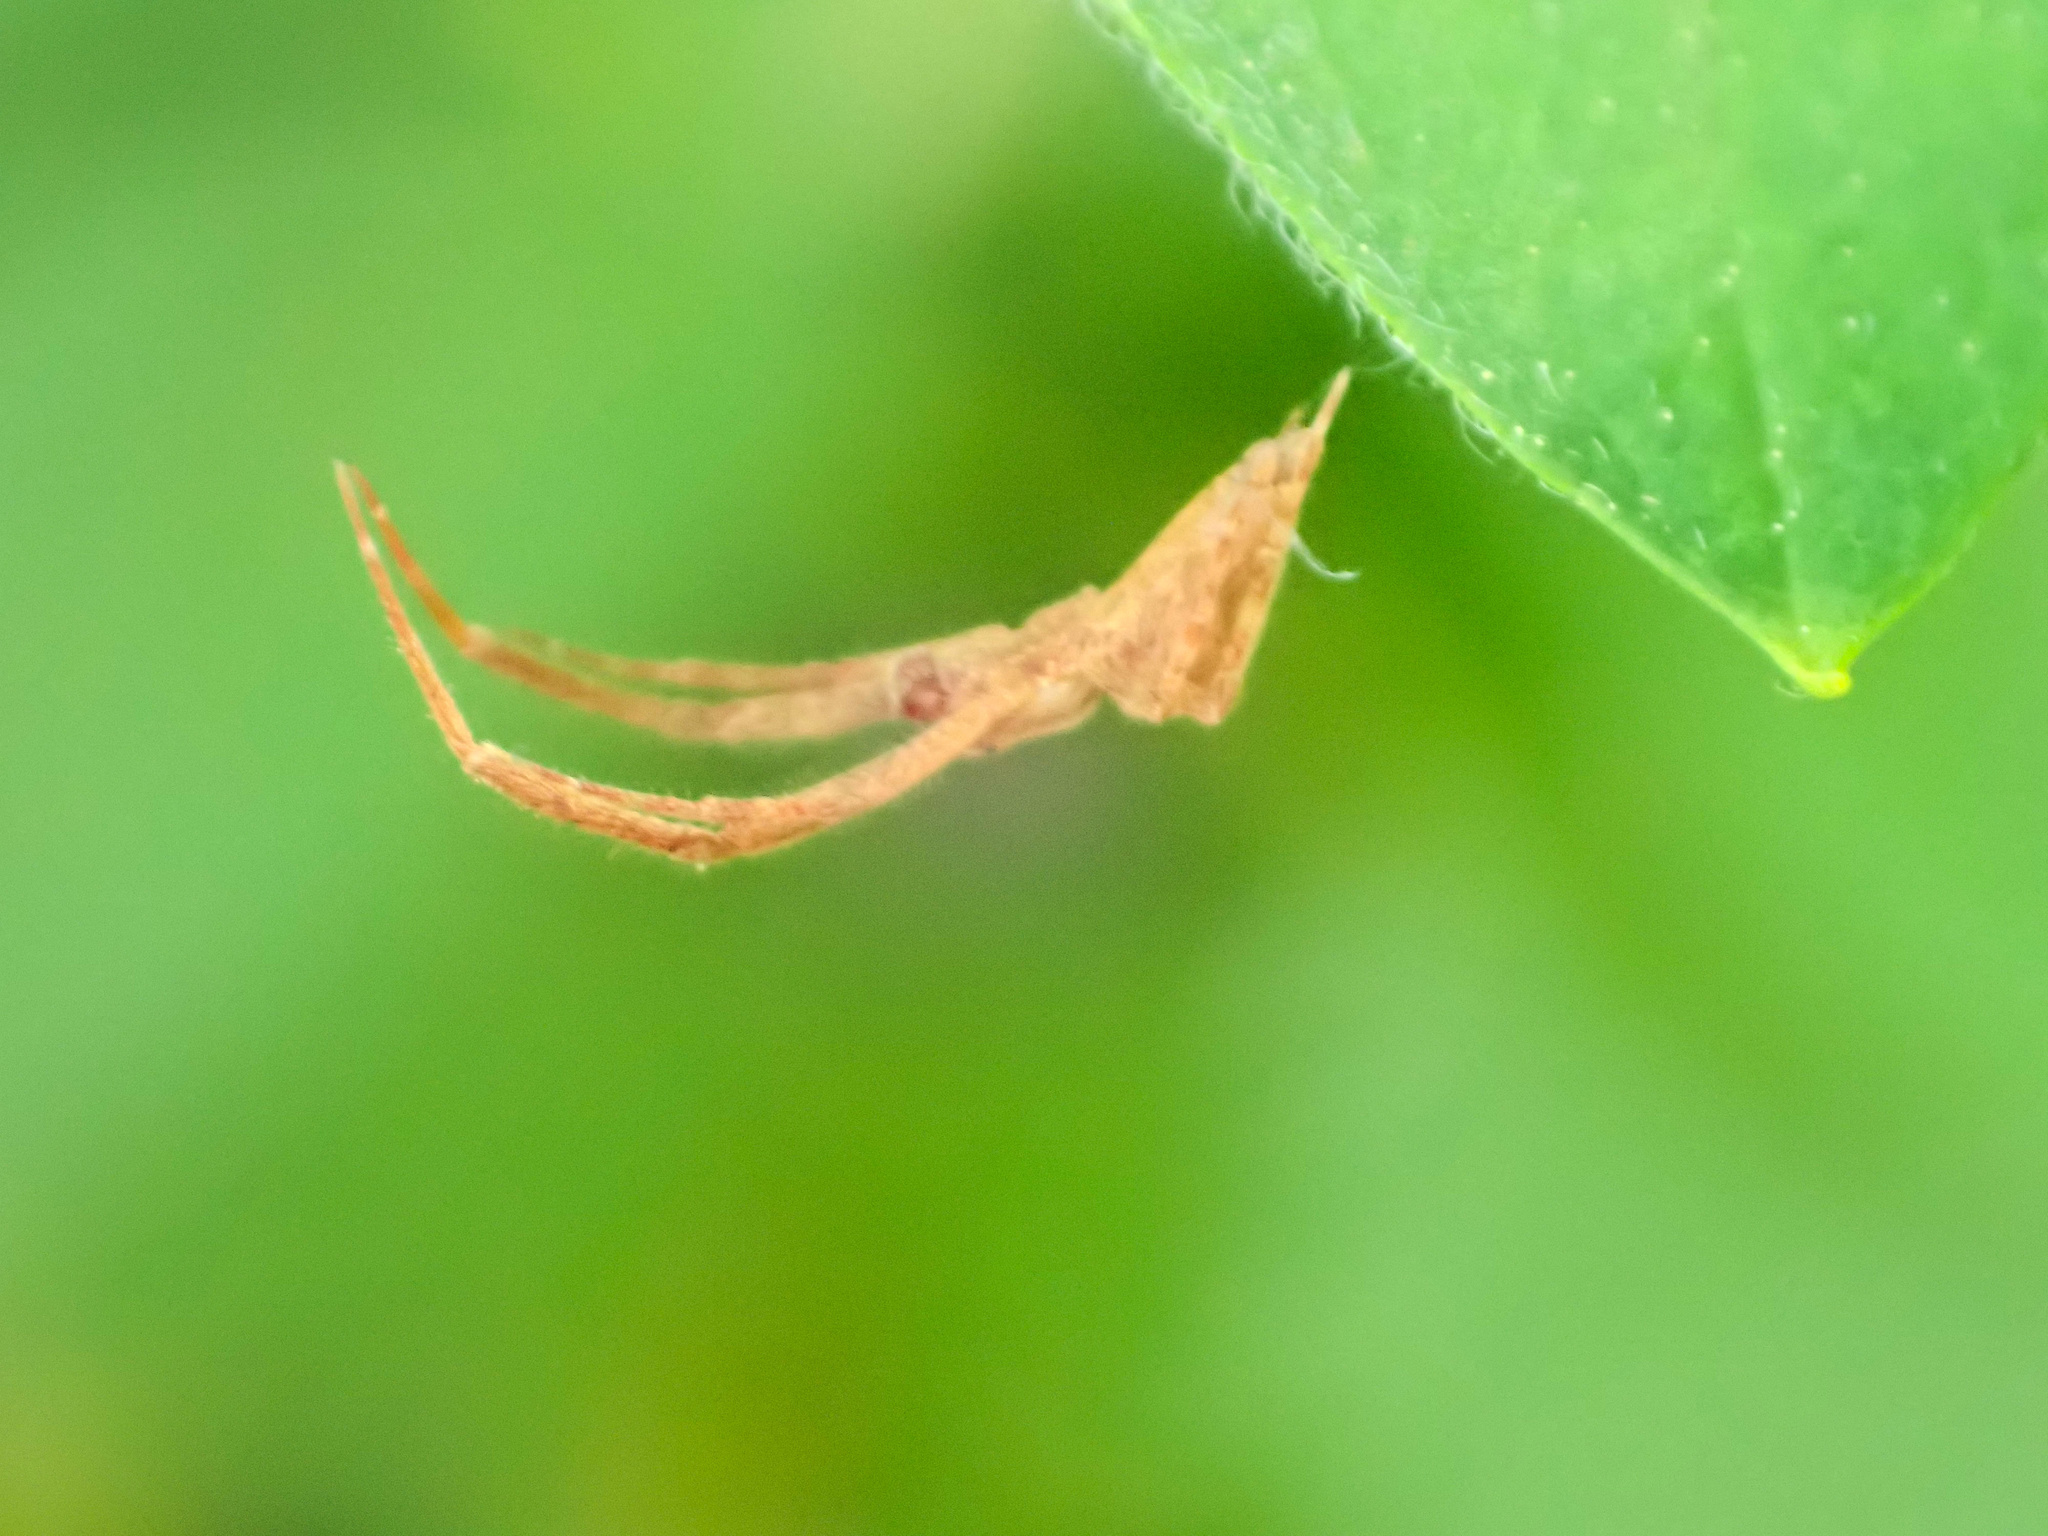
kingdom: Animalia
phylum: Arthropoda
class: Arachnida
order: Araneae
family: Uloboridae
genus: Uloborus
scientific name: Uloborus glomosus
